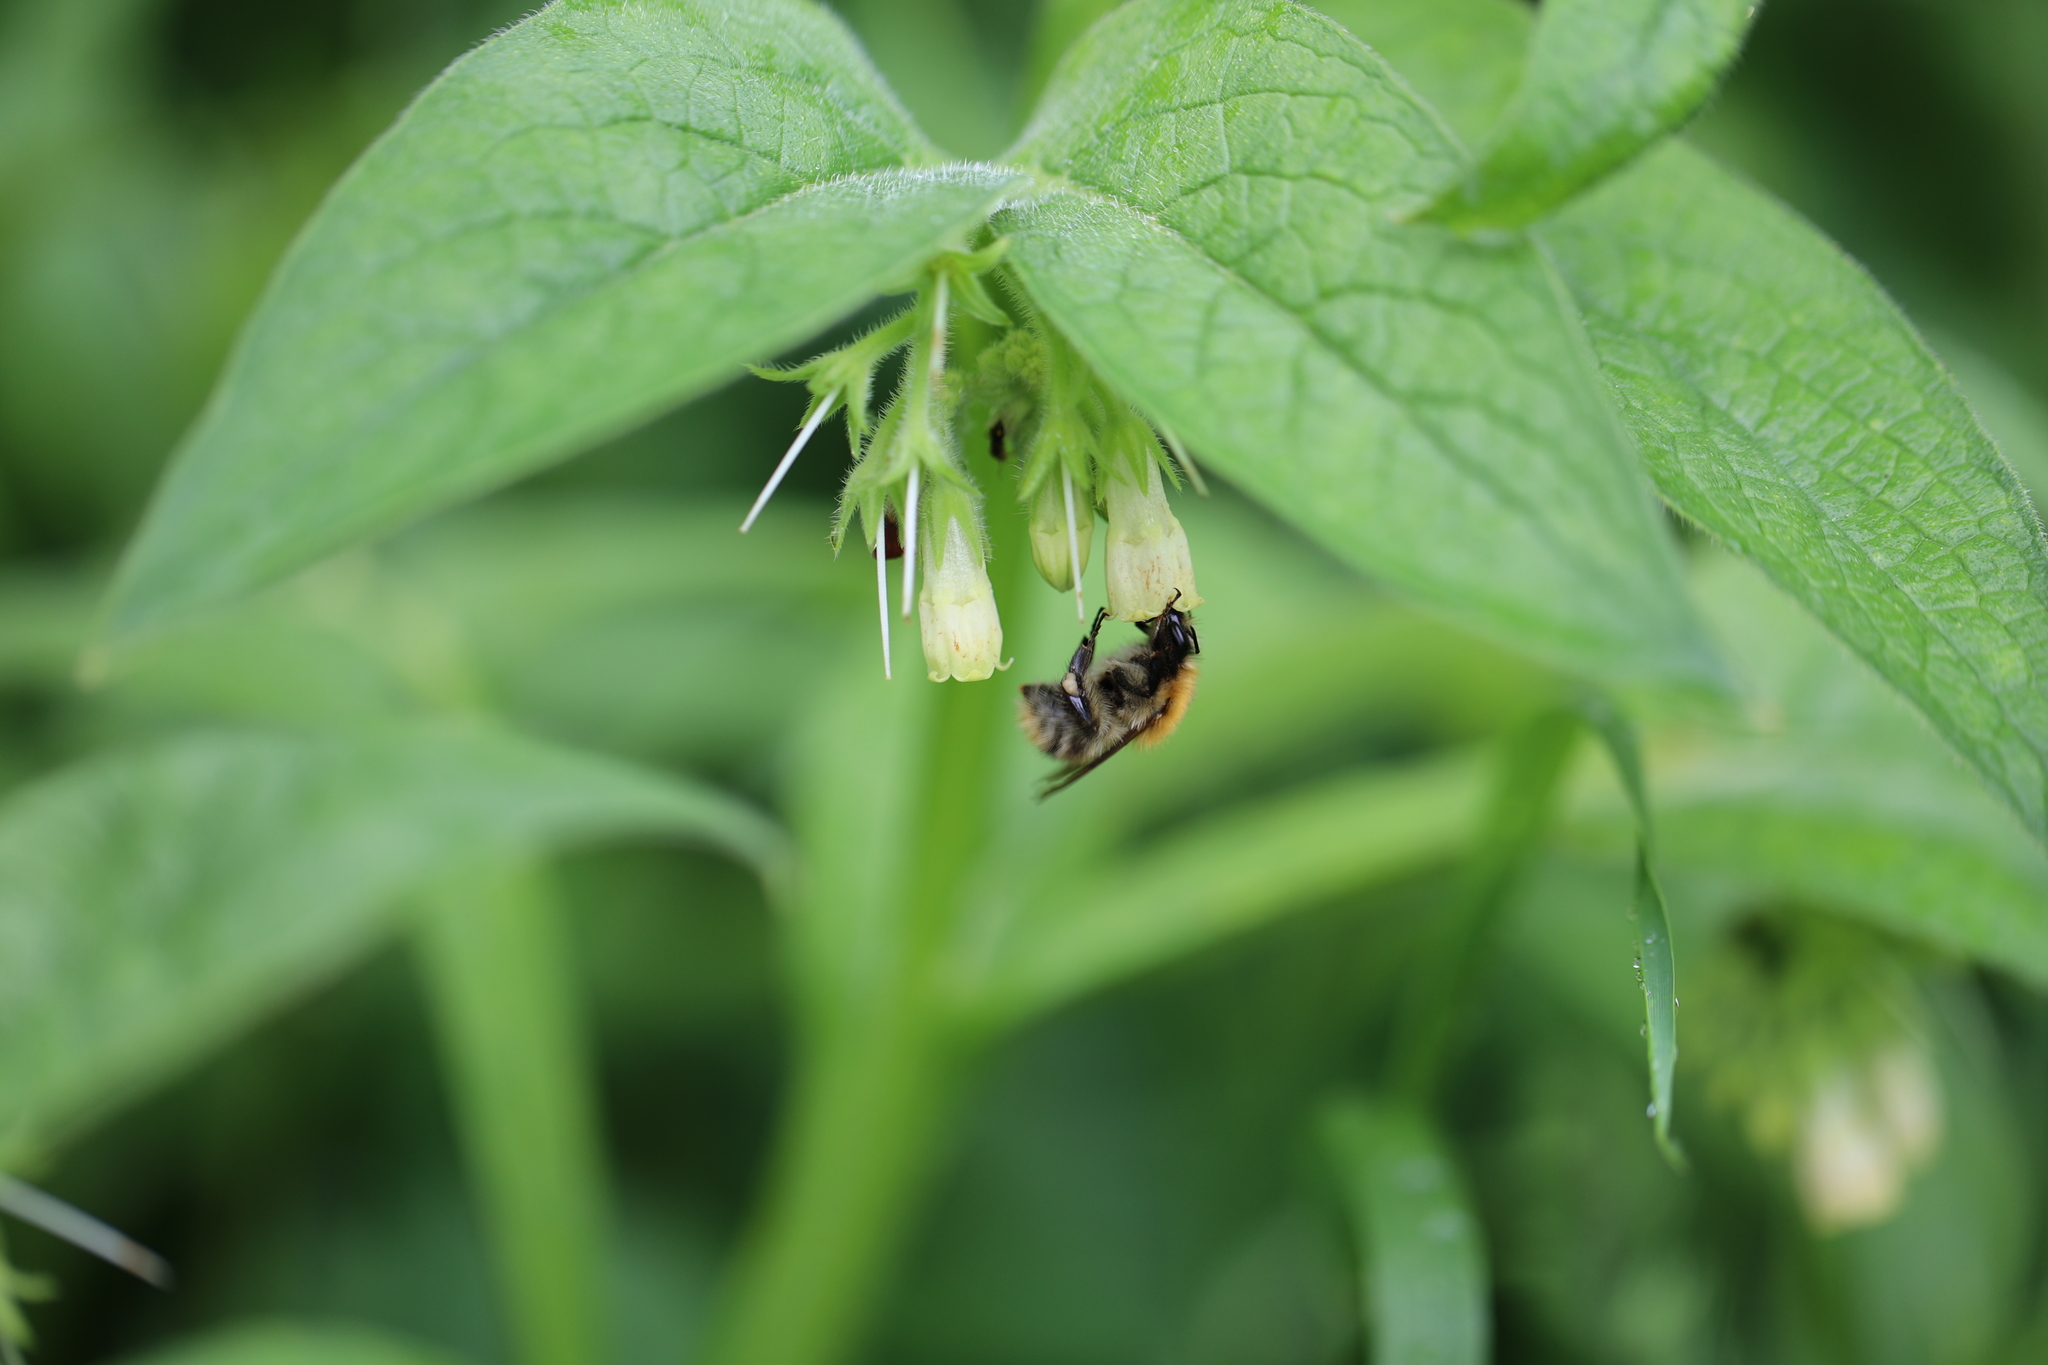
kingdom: Animalia
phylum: Arthropoda
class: Insecta
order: Hymenoptera
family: Apidae
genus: Bombus
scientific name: Bombus pascuorum
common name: Common carder bee
